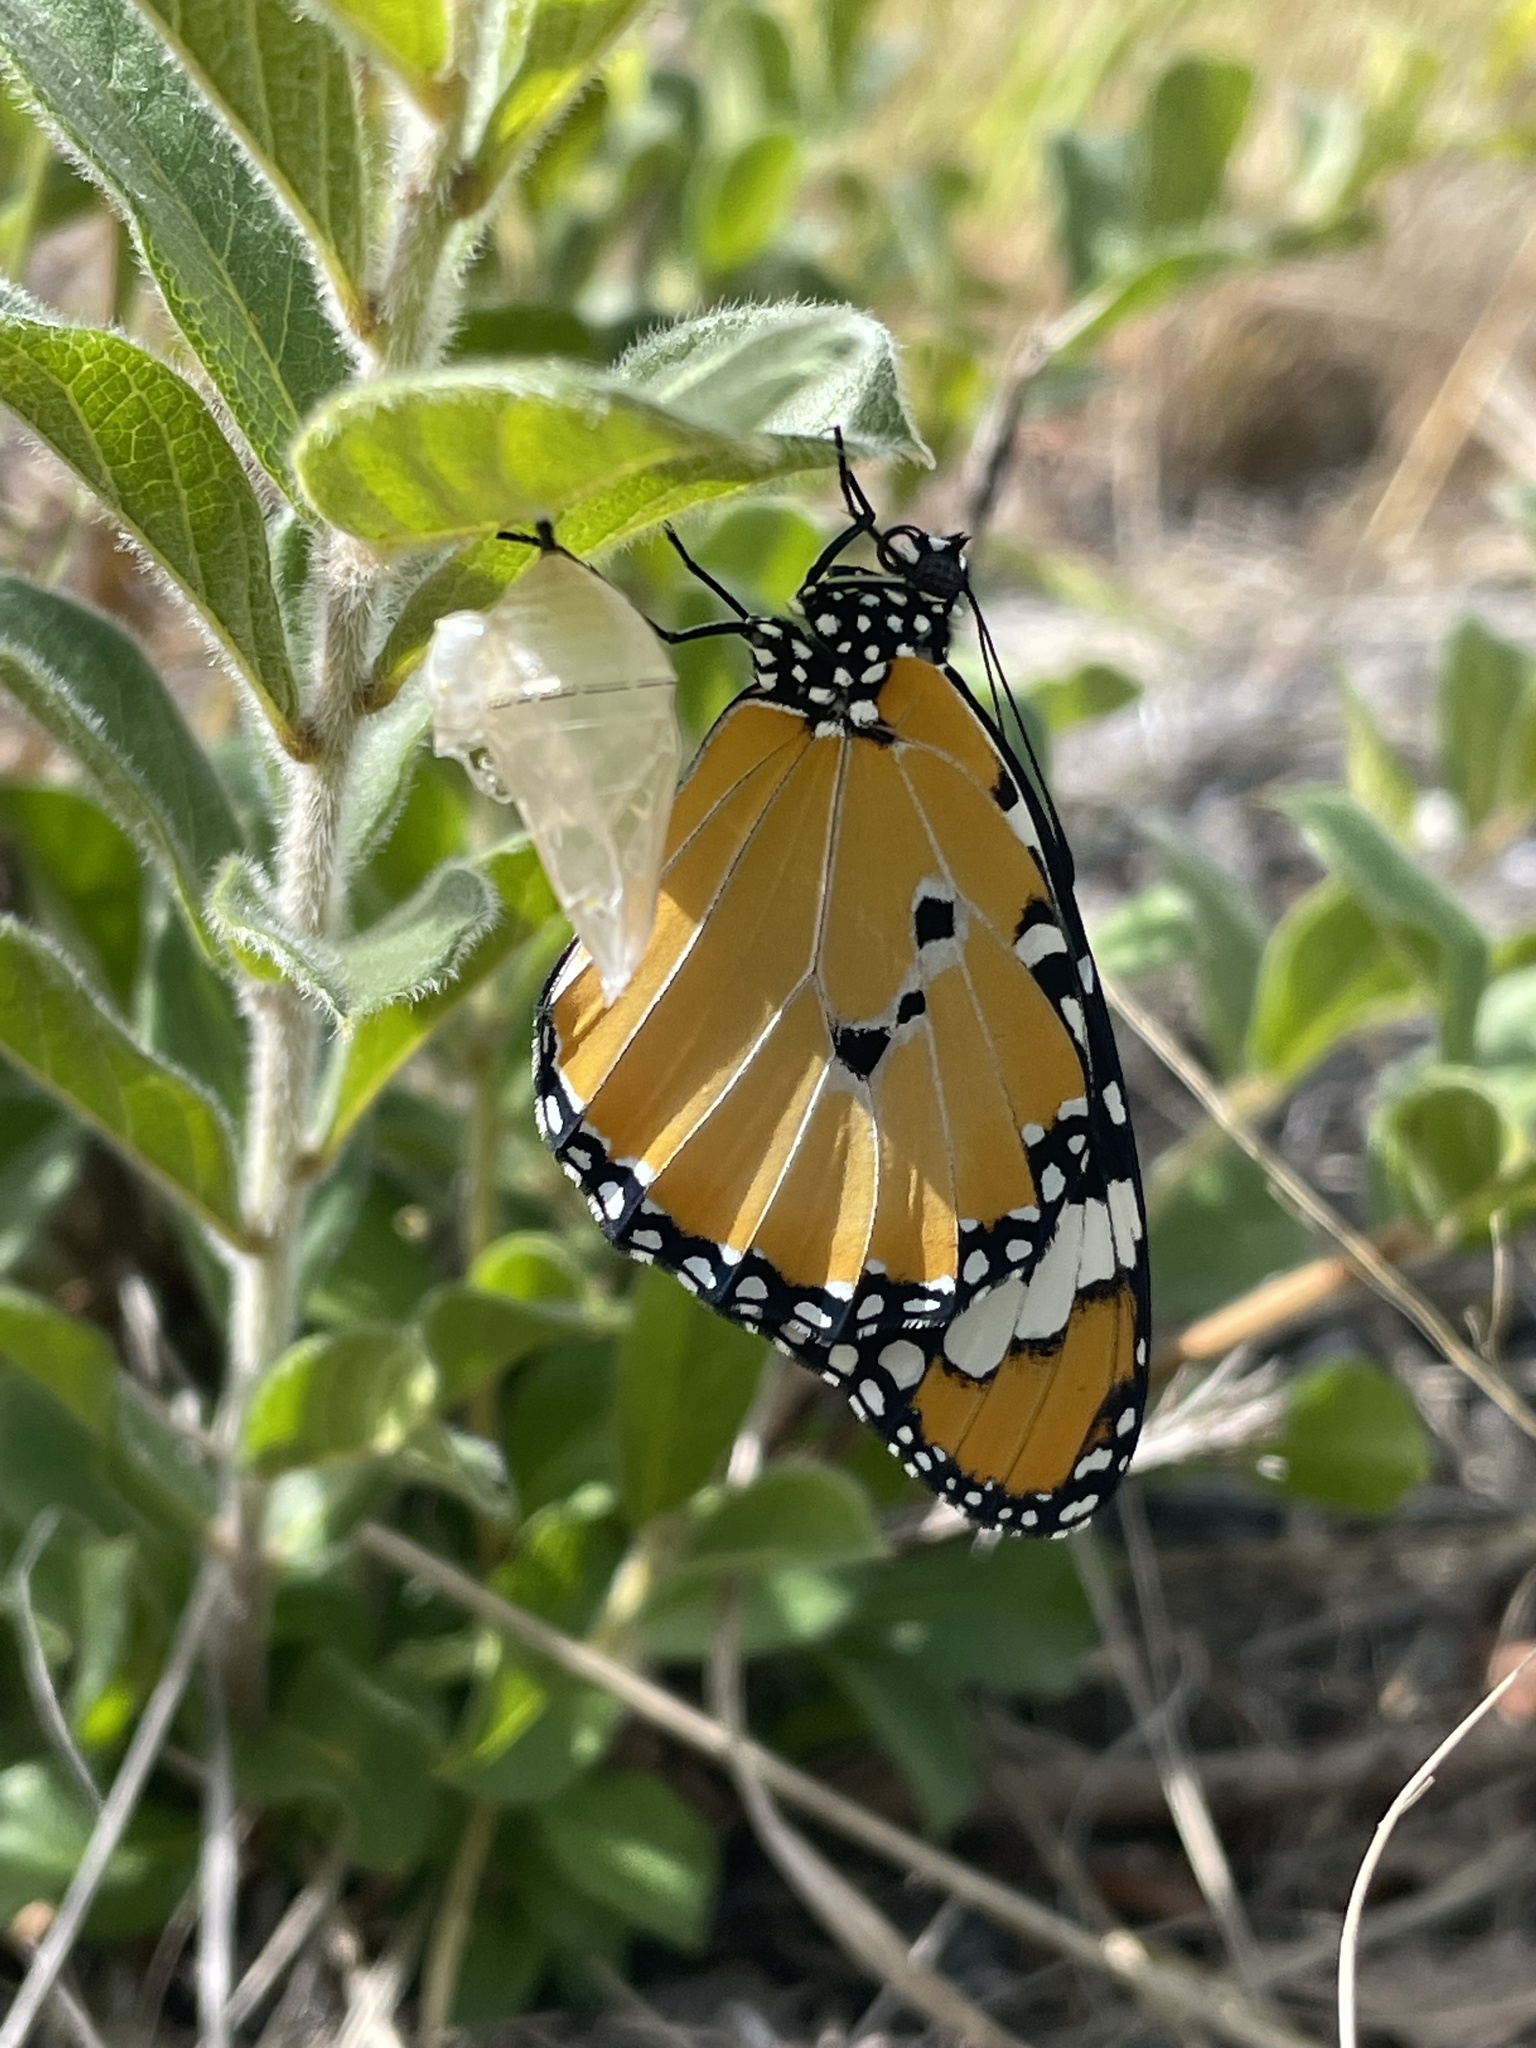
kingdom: Animalia
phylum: Arthropoda
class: Insecta
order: Lepidoptera
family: Nymphalidae
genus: Danaus
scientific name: Danaus chrysippus
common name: Plain tiger
